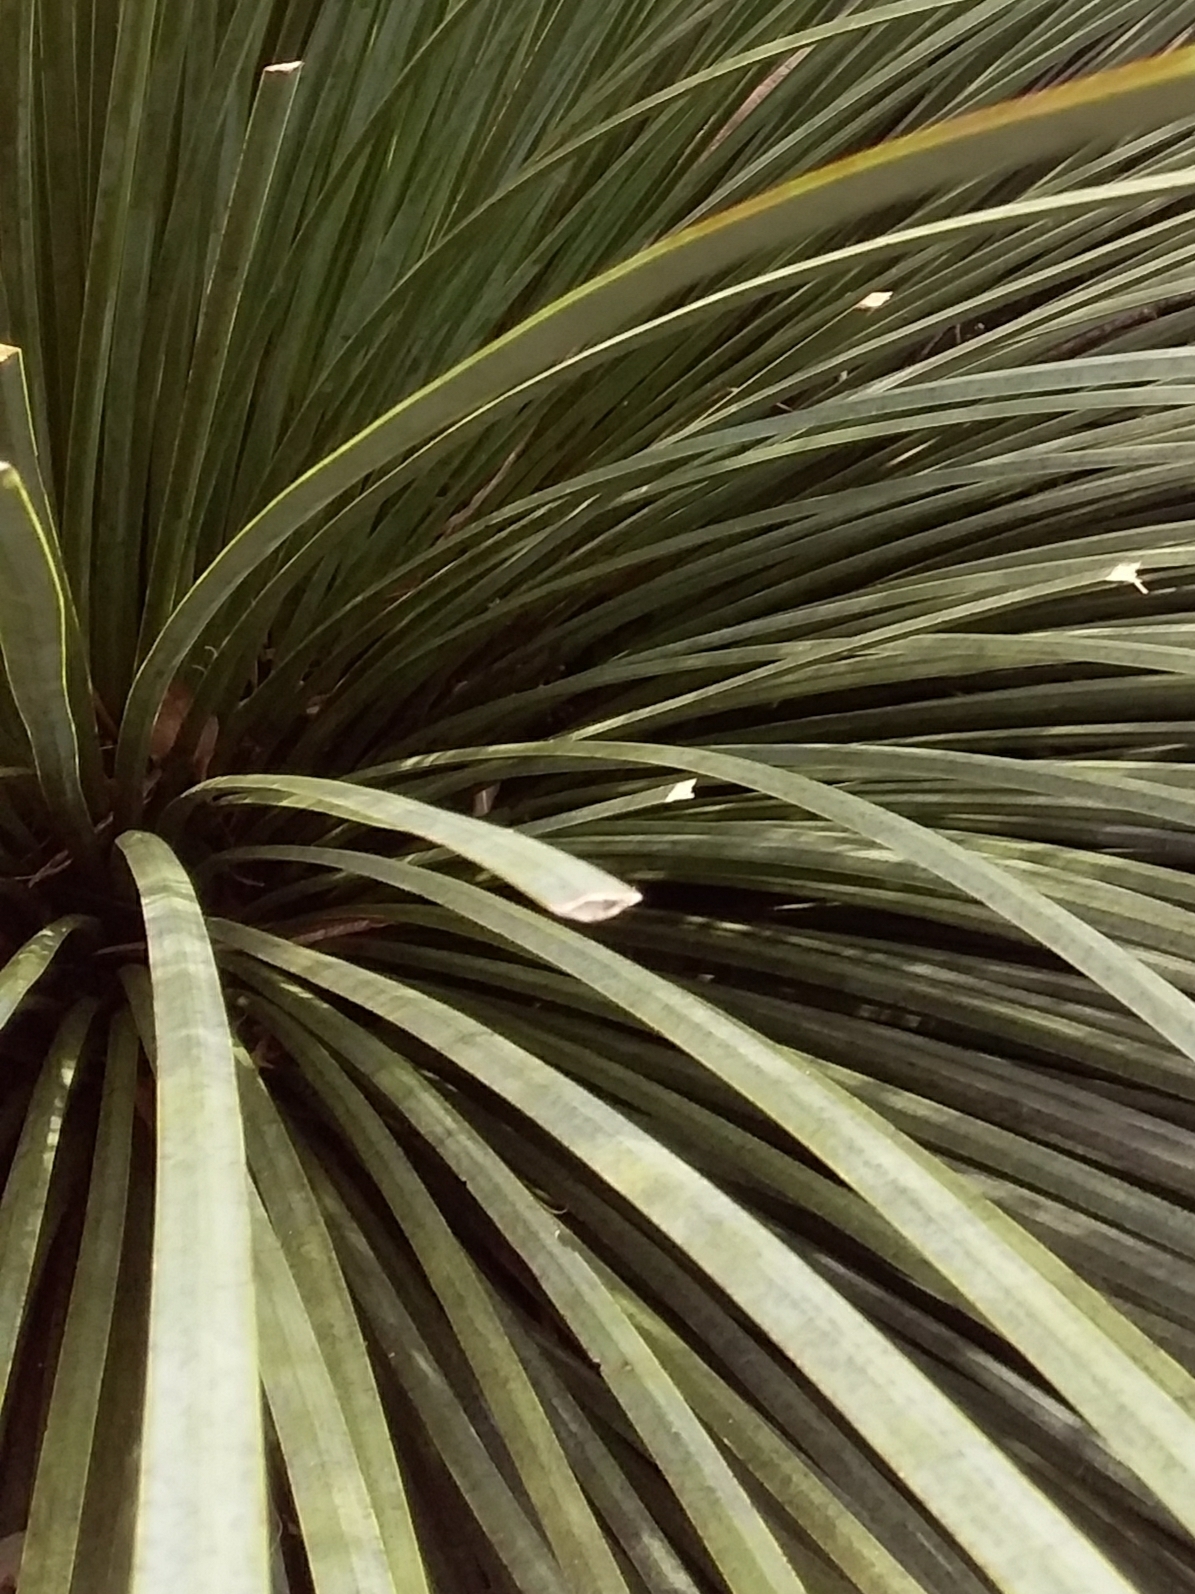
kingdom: Plantae
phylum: Tracheophyta
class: Liliopsida
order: Asparagales
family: Asphodelaceae
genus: Xanthorrhoea
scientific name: Xanthorrhoea semiplana
